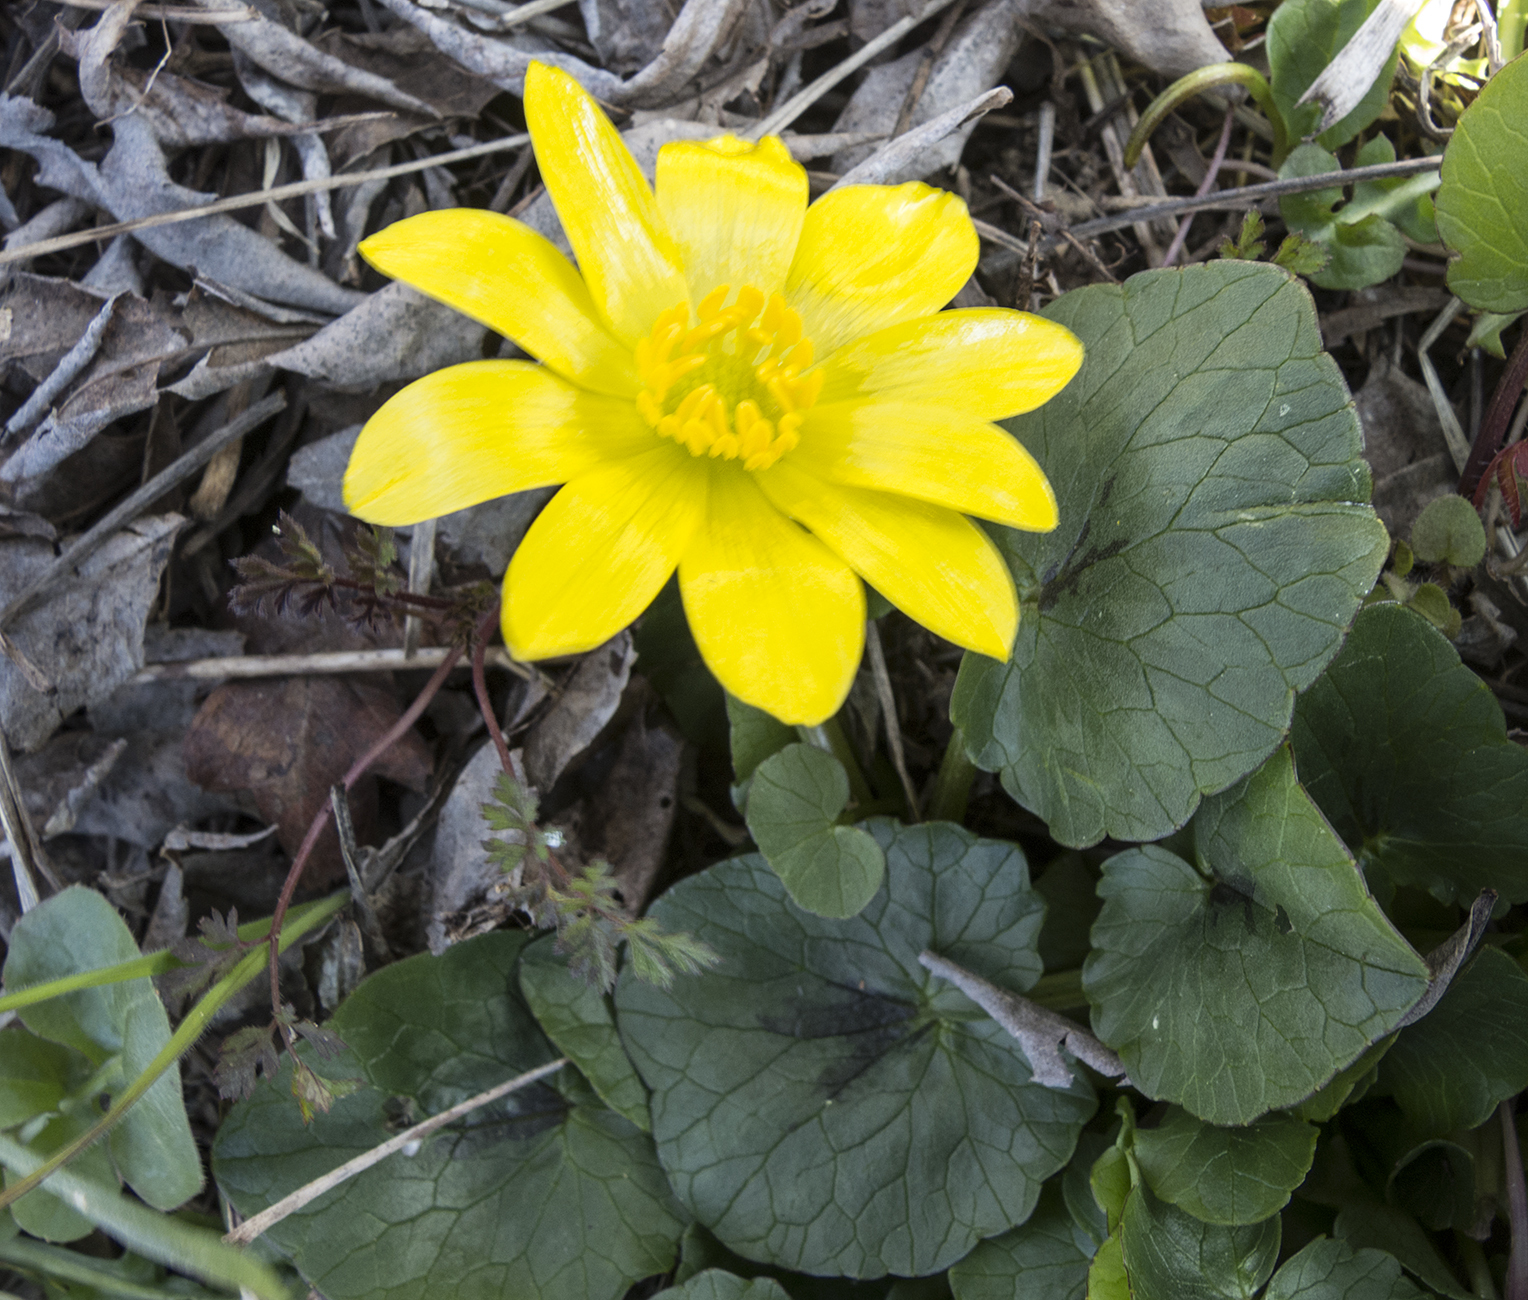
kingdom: Plantae
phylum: Tracheophyta
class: Magnoliopsida
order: Ranunculales
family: Ranunculaceae
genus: Ficaria
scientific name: Ficaria verna
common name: Lesser celandine
